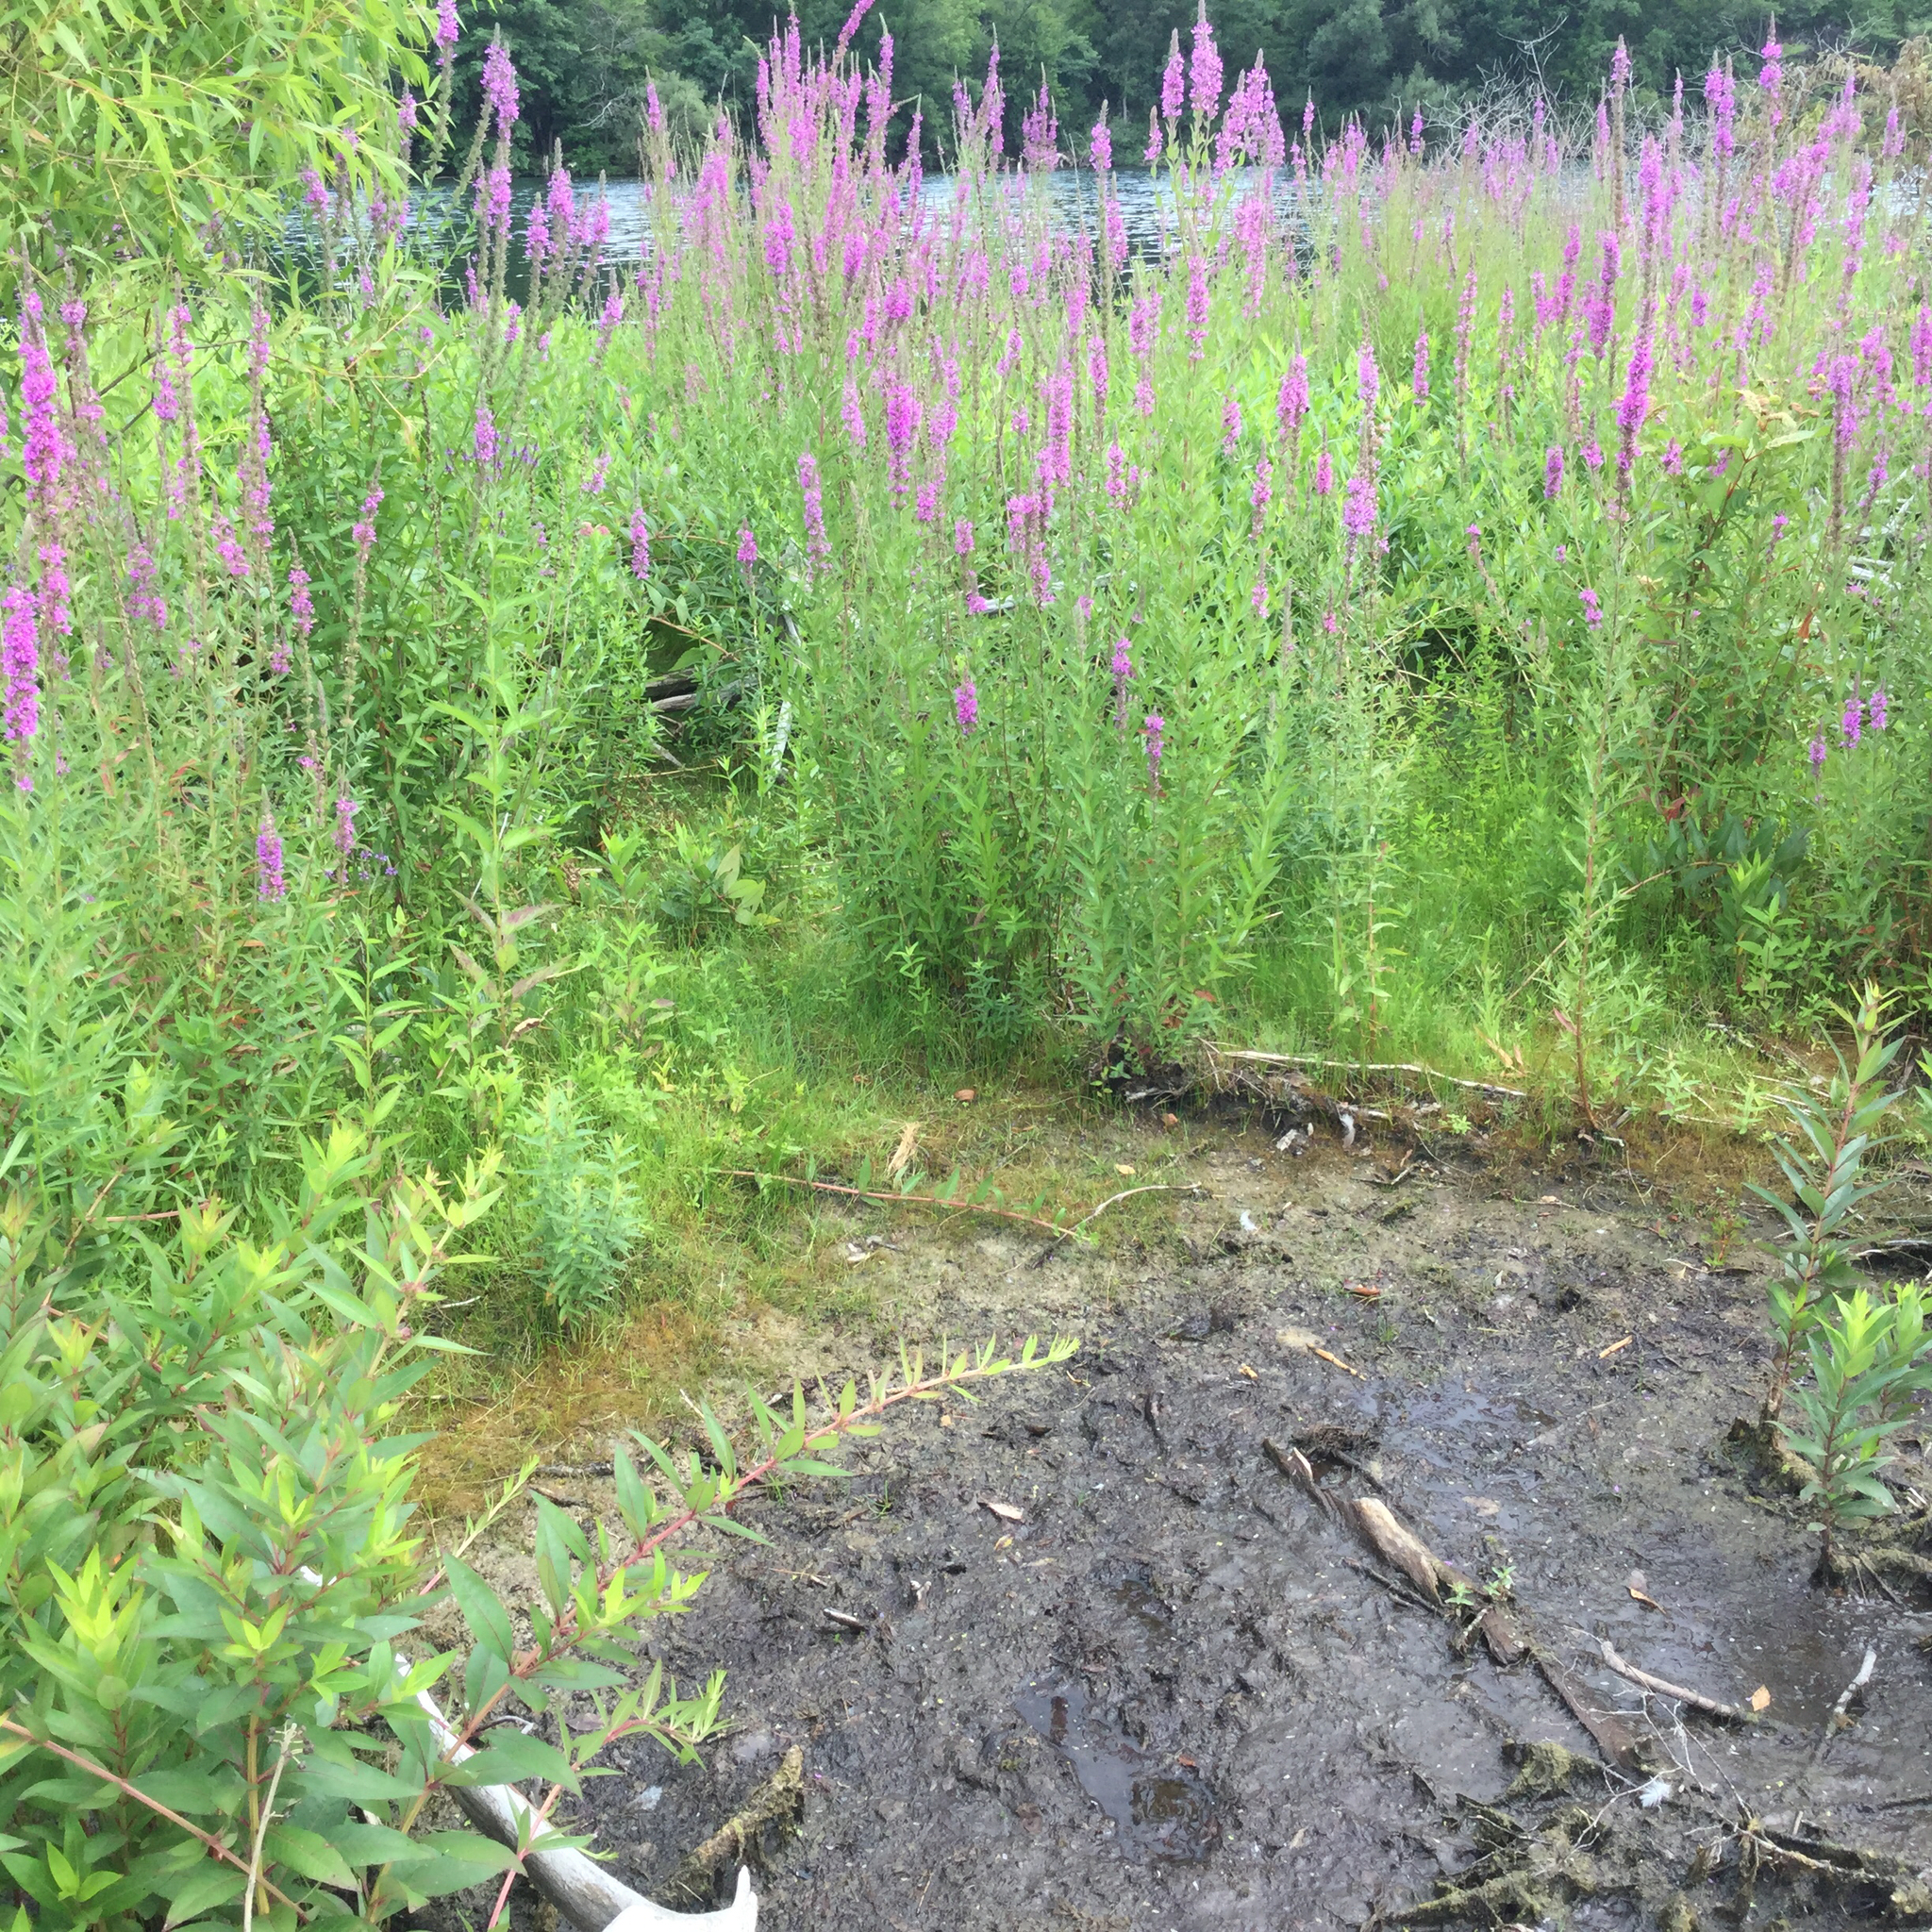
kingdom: Plantae
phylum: Tracheophyta
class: Magnoliopsida
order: Myrtales
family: Lythraceae
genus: Lythrum
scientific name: Lythrum salicaria
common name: Purple loosestrife
